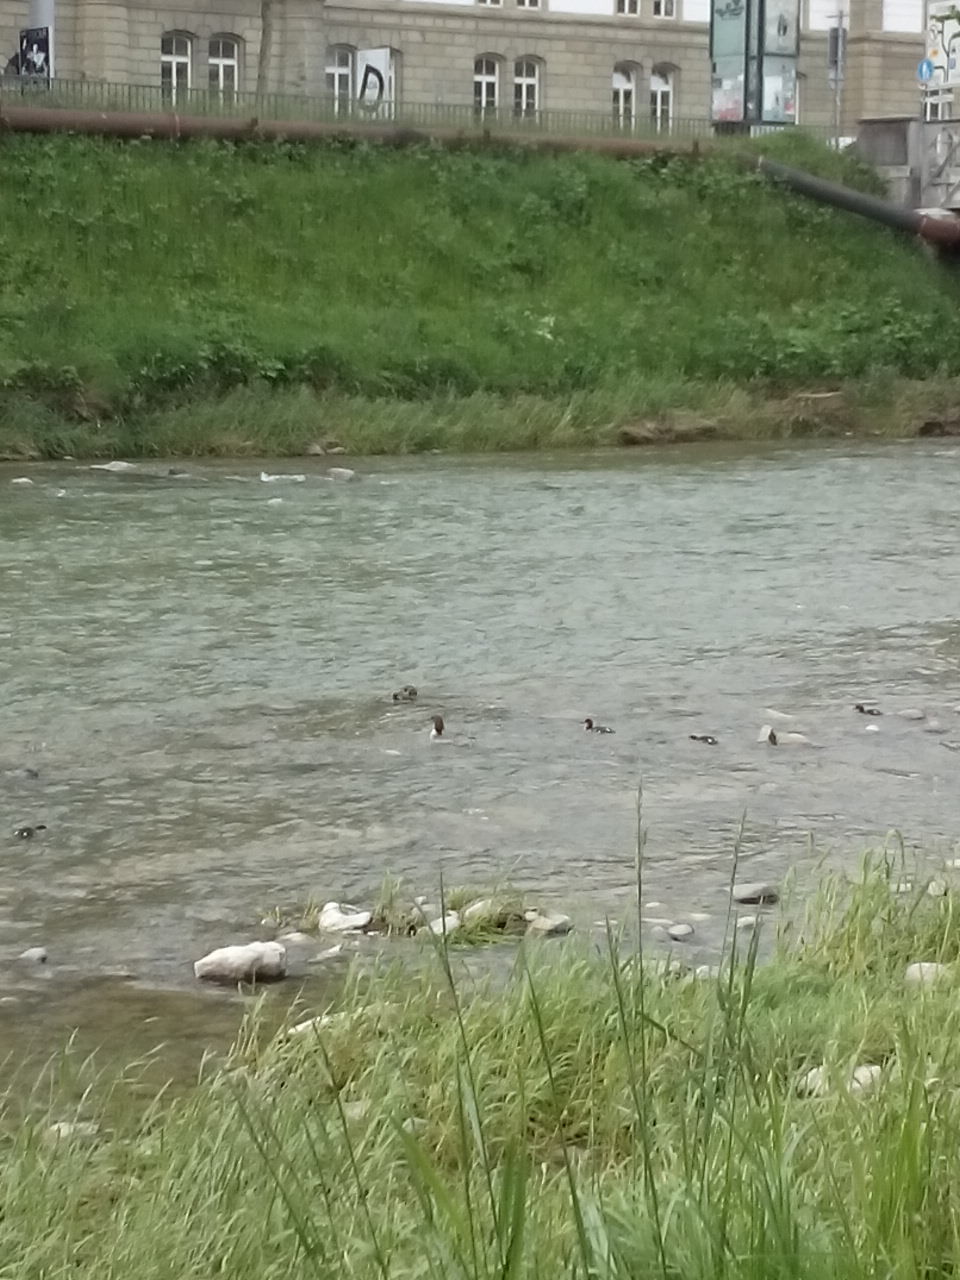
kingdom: Animalia
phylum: Chordata
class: Aves
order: Anseriformes
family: Anatidae
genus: Mergus
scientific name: Mergus merganser
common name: Common merganser
